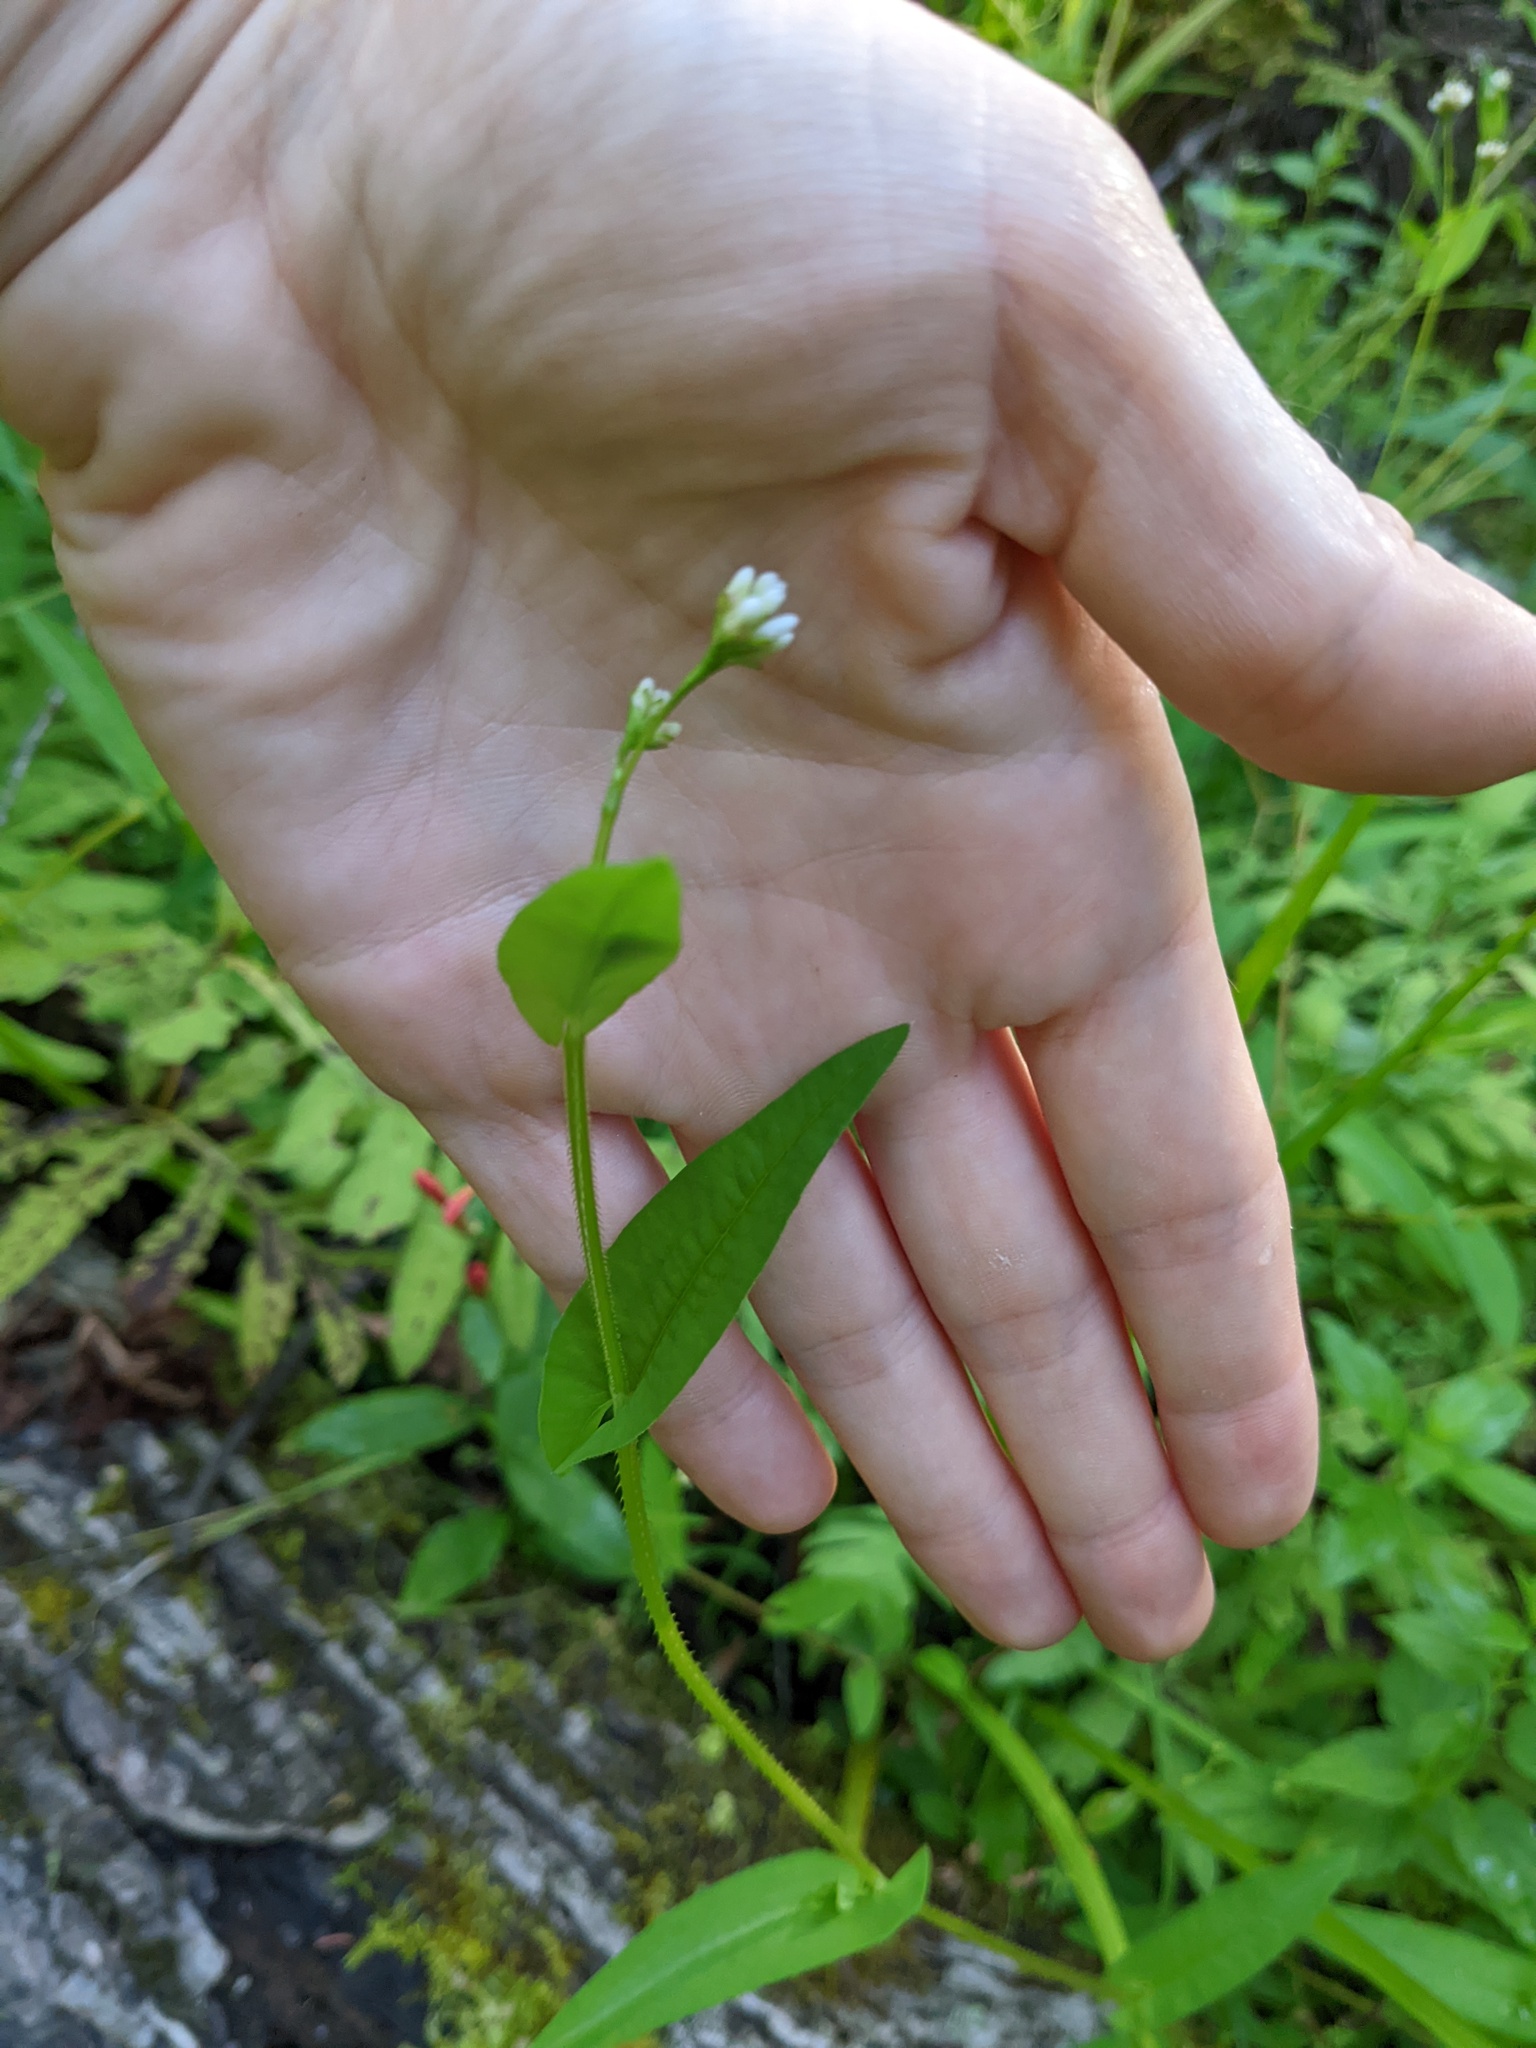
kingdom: Plantae
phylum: Tracheophyta
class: Magnoliopsida
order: Caryophyllales
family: Polygonaceae
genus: Persicaria
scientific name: Persicaria sagittata
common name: American tearthumb
